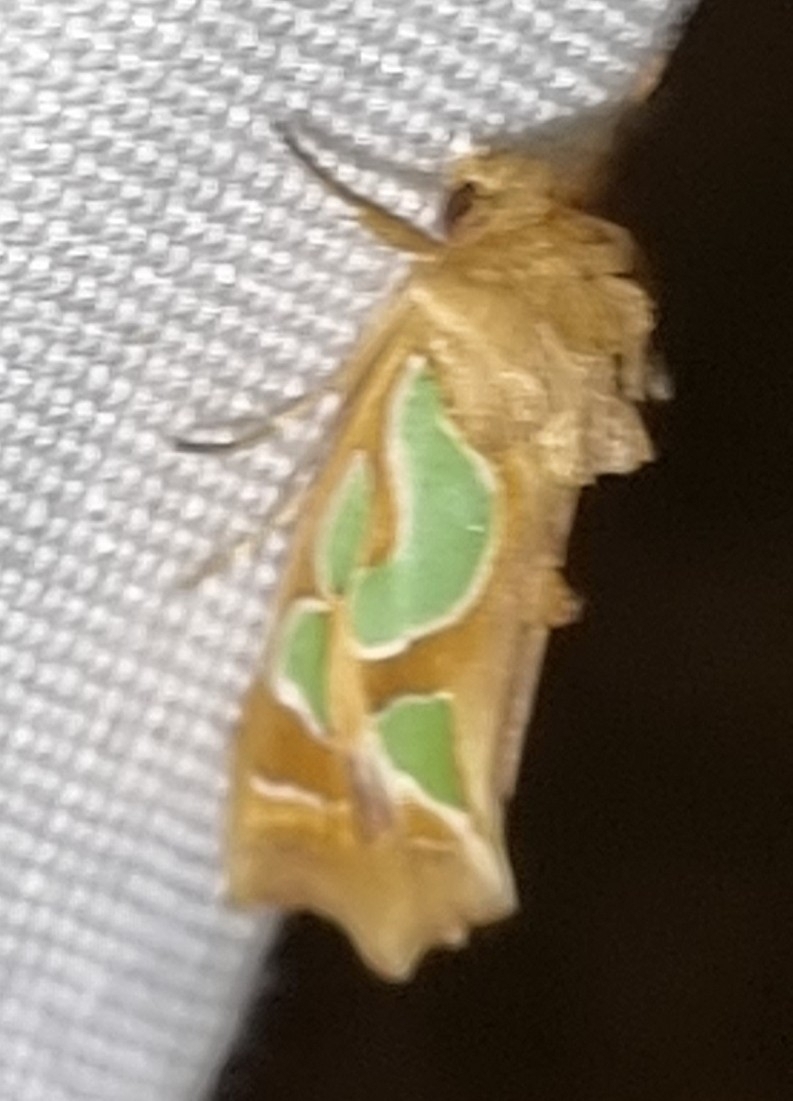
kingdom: Animalia
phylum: Arthropoda
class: Insecta
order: Lepidoptera
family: Noctuidae
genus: Cosmodes
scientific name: Cosmodes elegans
